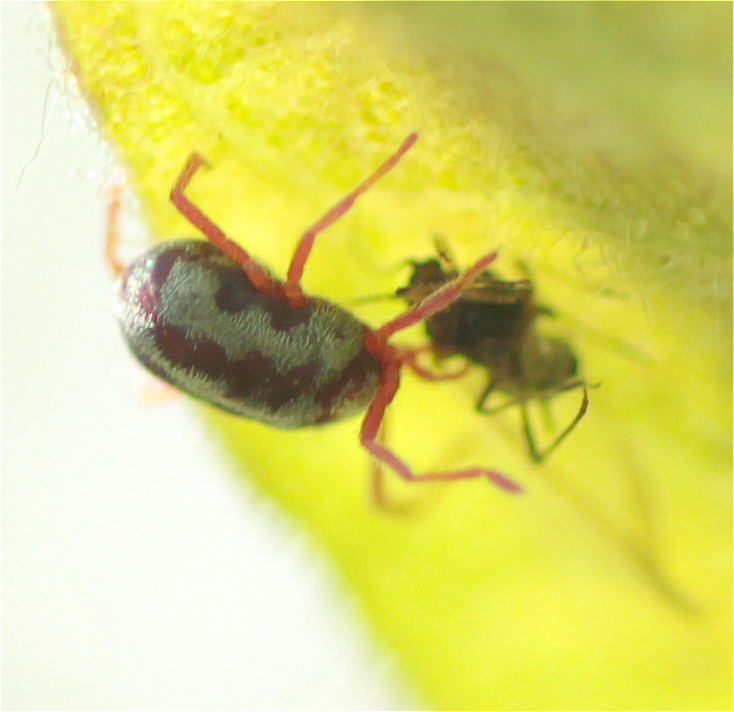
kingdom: Animalia
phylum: Arthropoda
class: Arachnida
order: Trombidiformes
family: Erythraeidae
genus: Balaustium
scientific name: Balaustium leanderi
